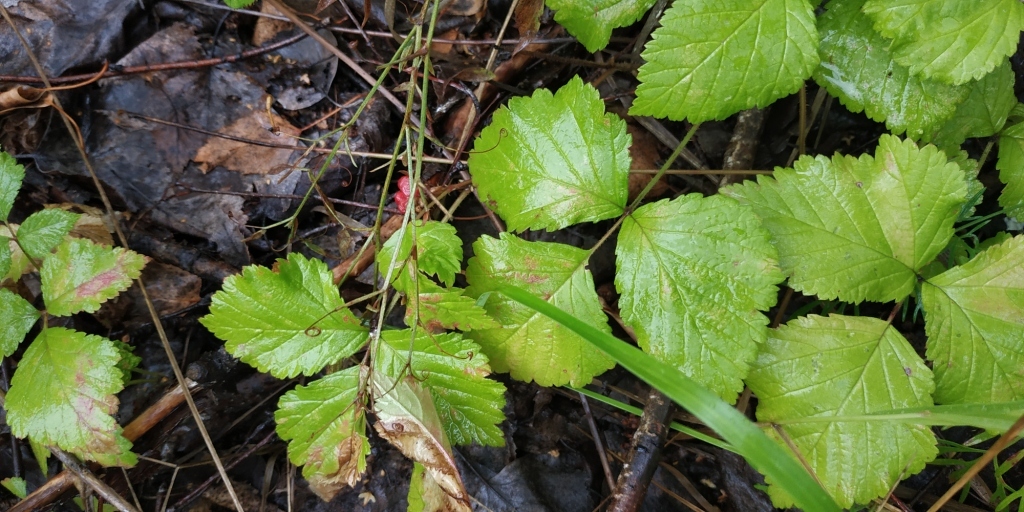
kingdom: Plantae
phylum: Tracheophyta
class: Magnoliopsida
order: Rosales
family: Rosaceae
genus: Rubus
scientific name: Rubus saxatilis
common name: Stone bramble
